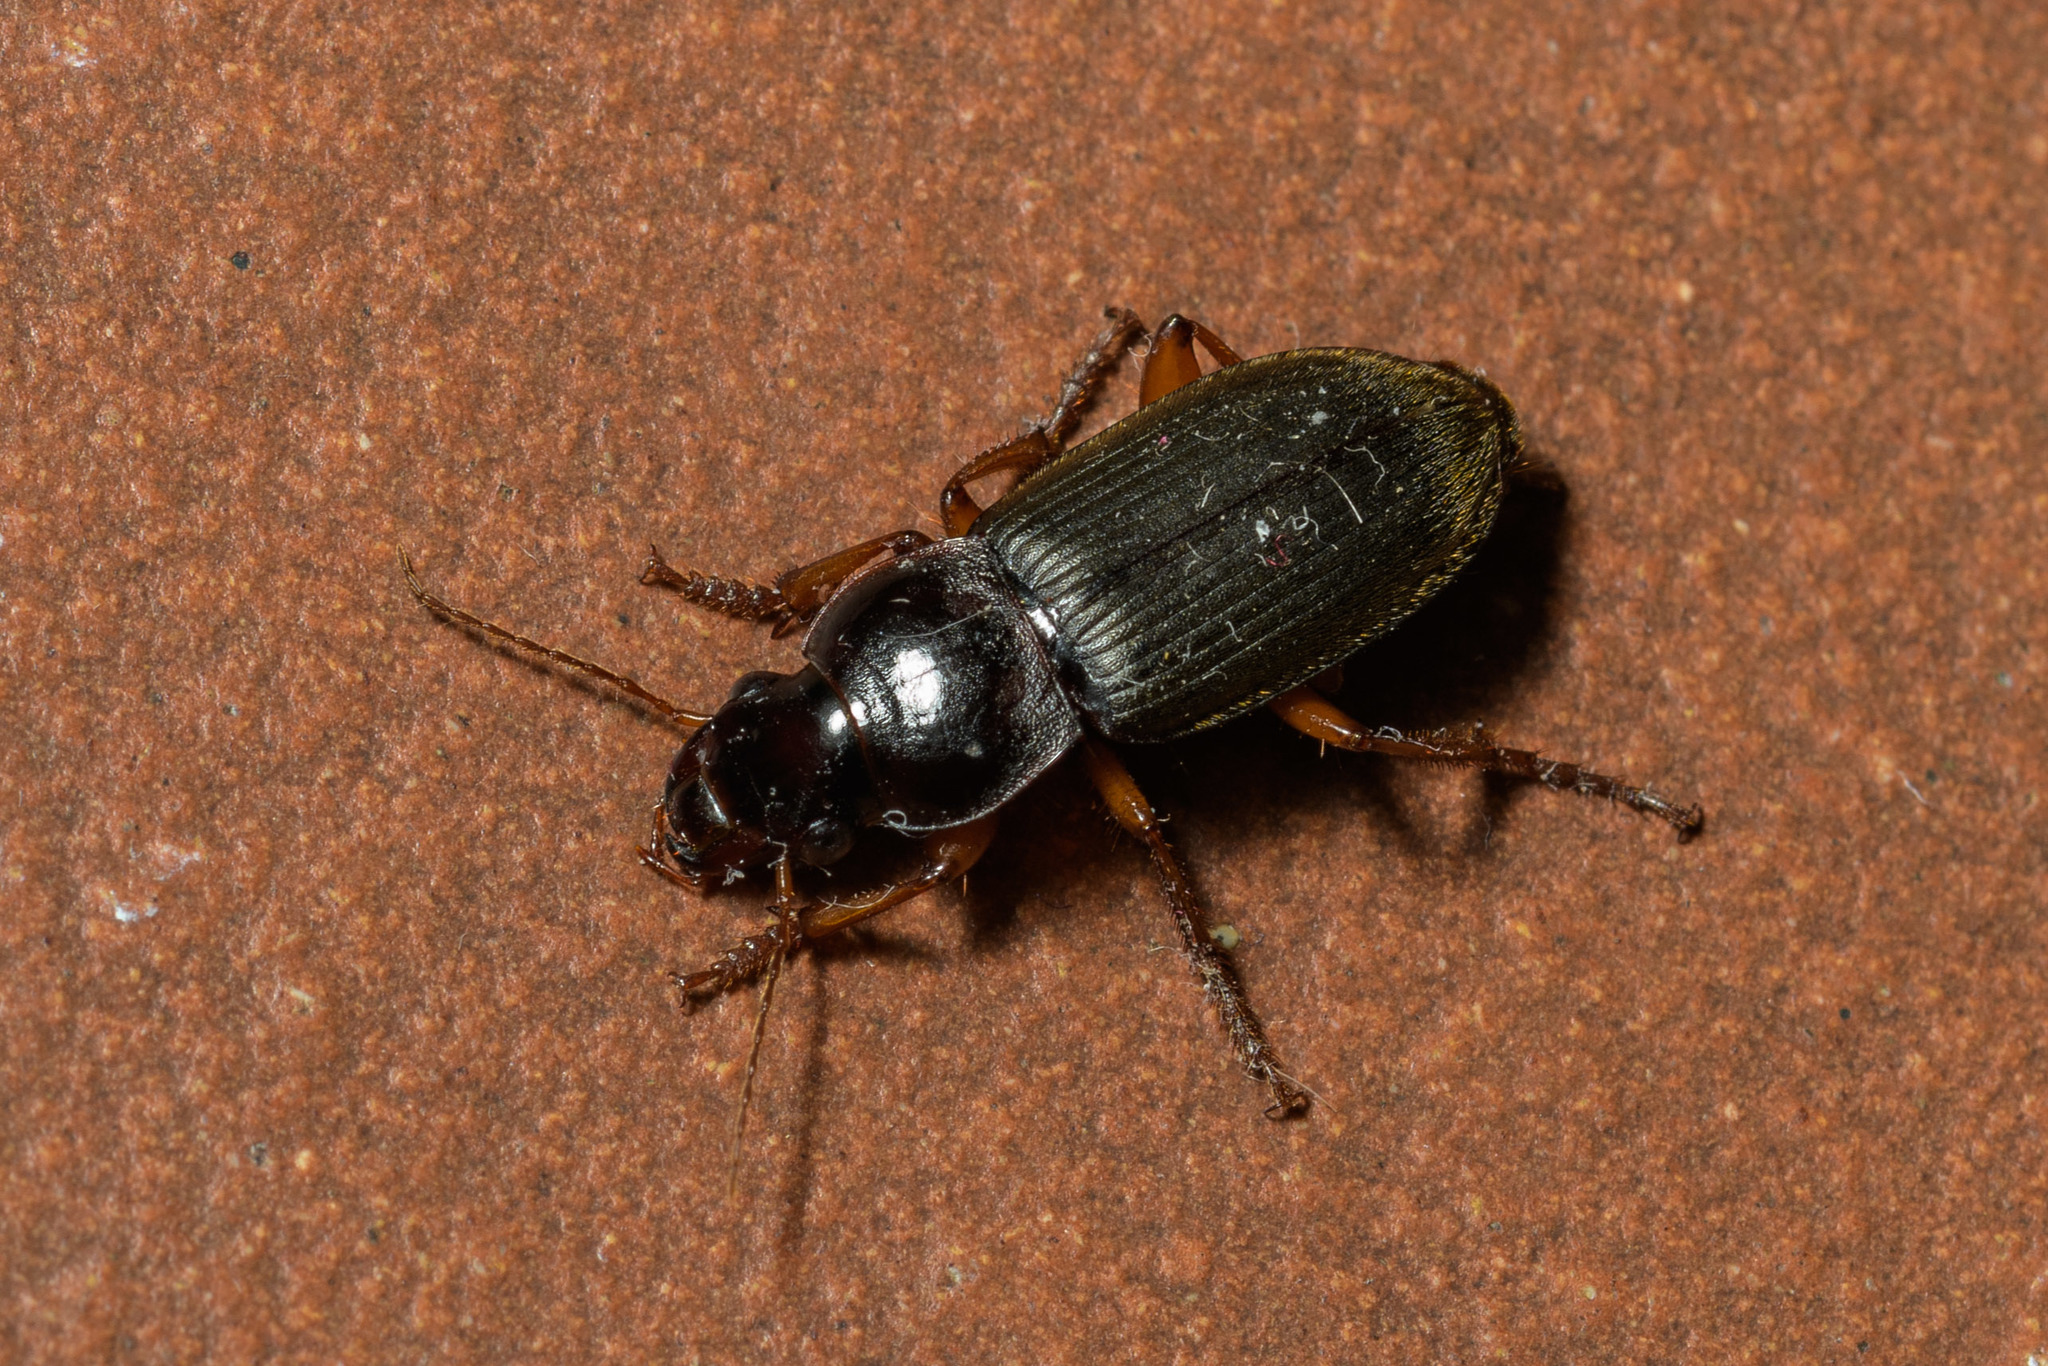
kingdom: Animalia
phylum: Arthropoda
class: Insecta
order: Coleoptera
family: Carabidae
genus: Harpalus
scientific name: Harpalus rufipes
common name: Strawberry harp ground beetle
